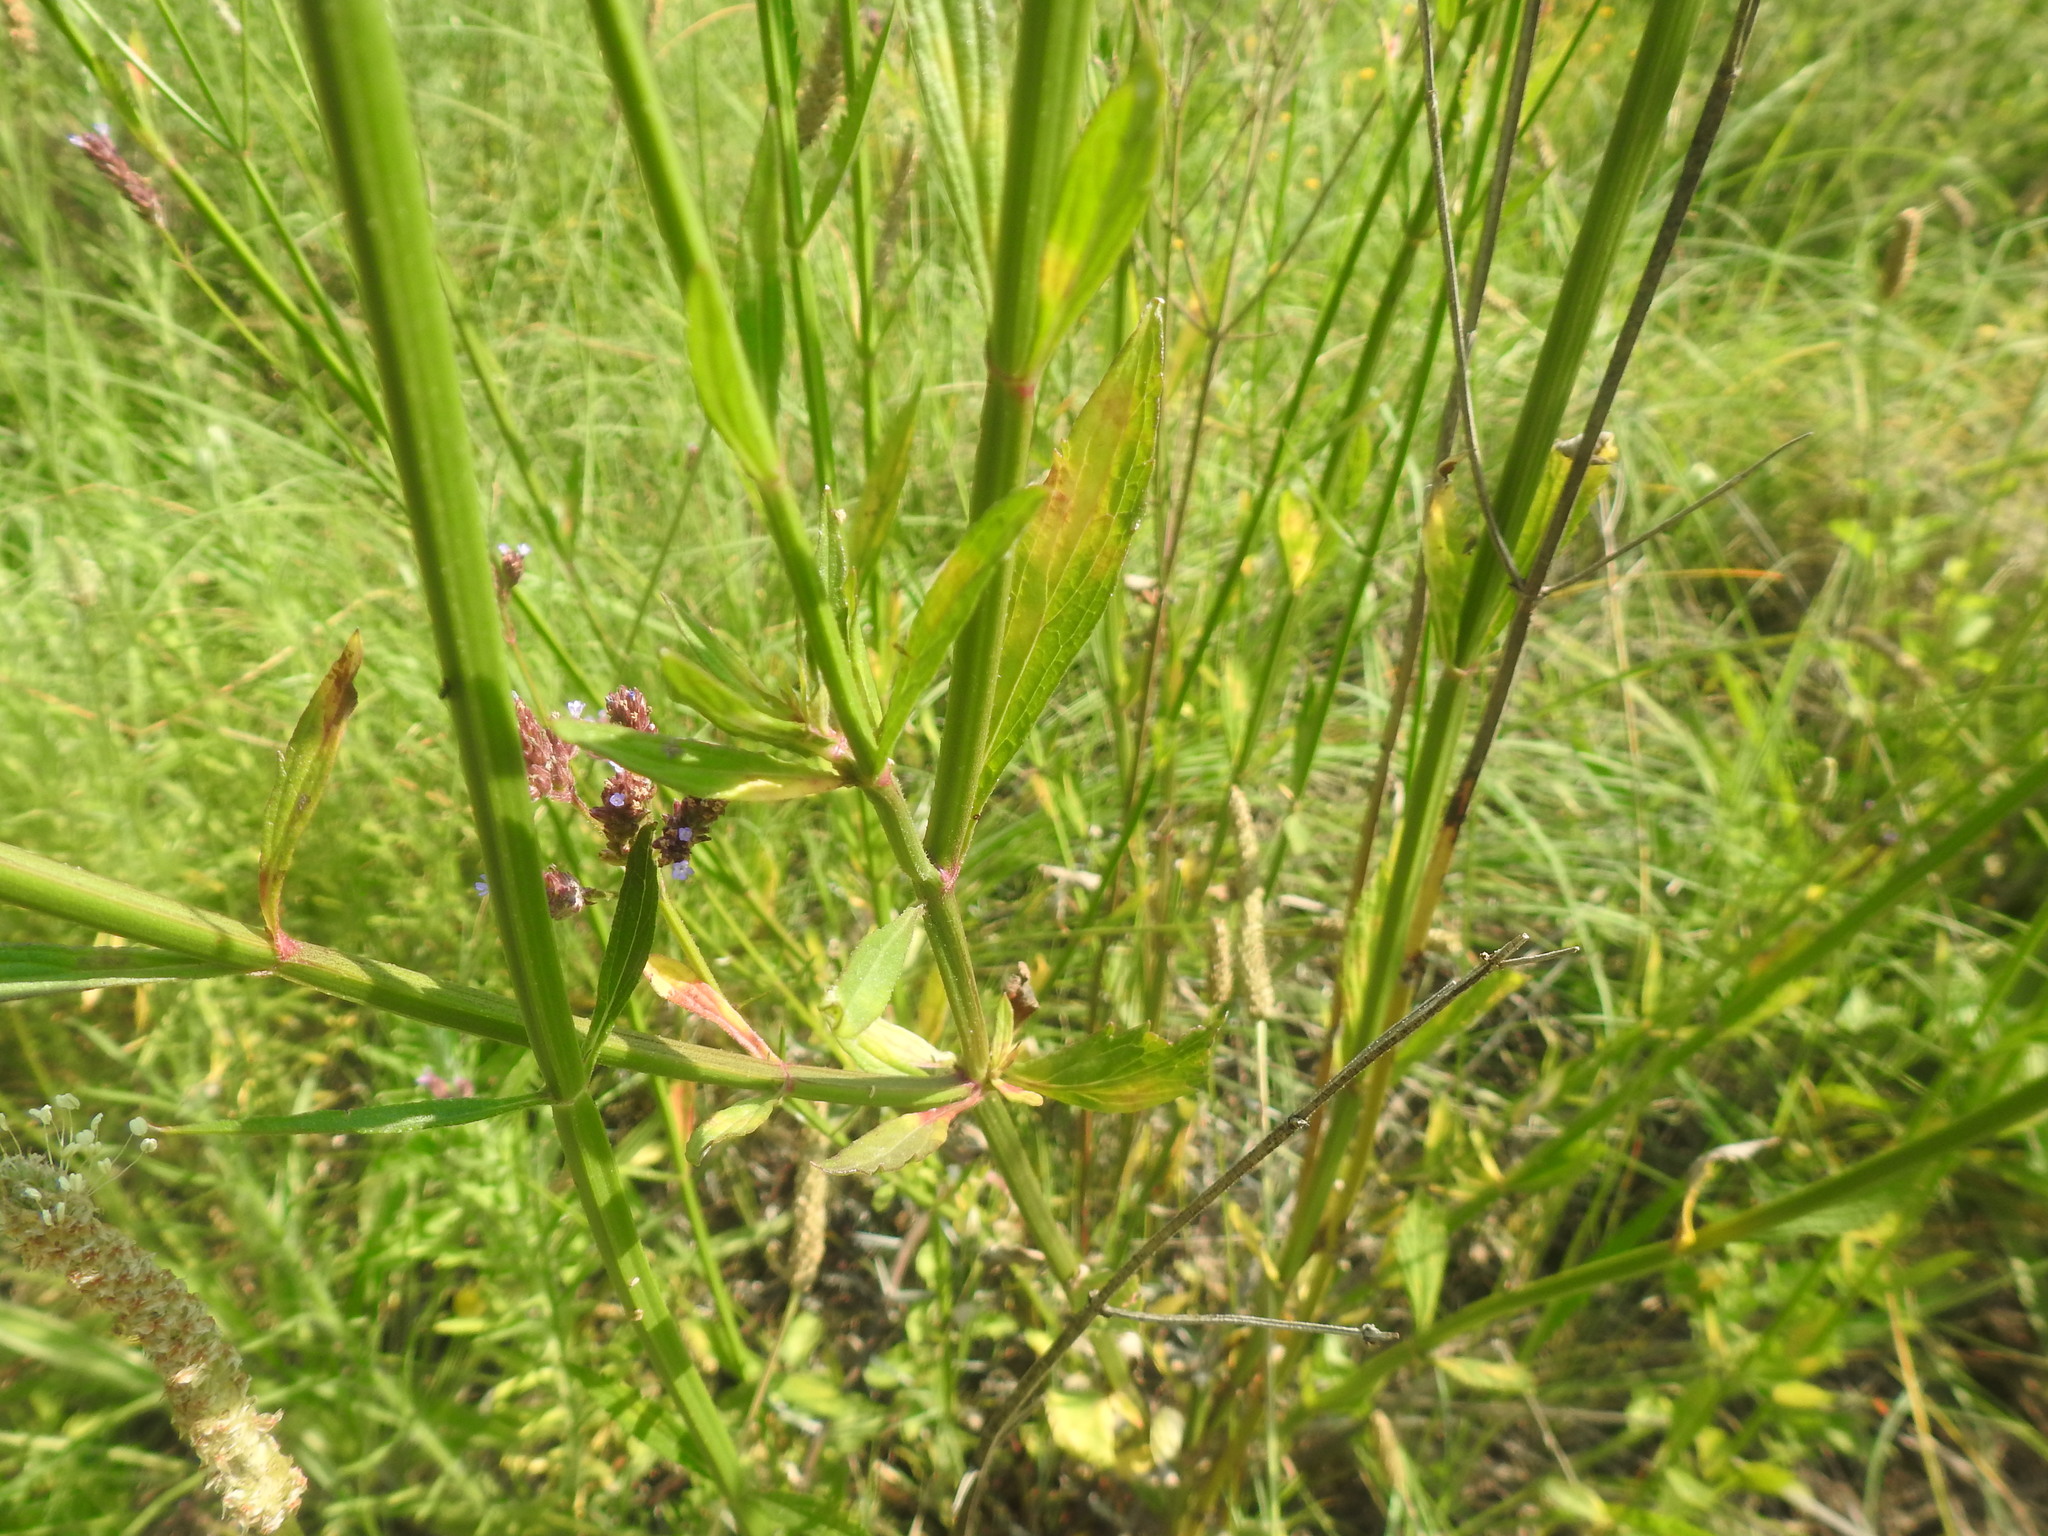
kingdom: Plantae
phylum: Tracheophyta
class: Magnoliopsida
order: Lamiales
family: Verbenaceae
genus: Verbena
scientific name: Verbena bonariensis
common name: Purpletop vervain
